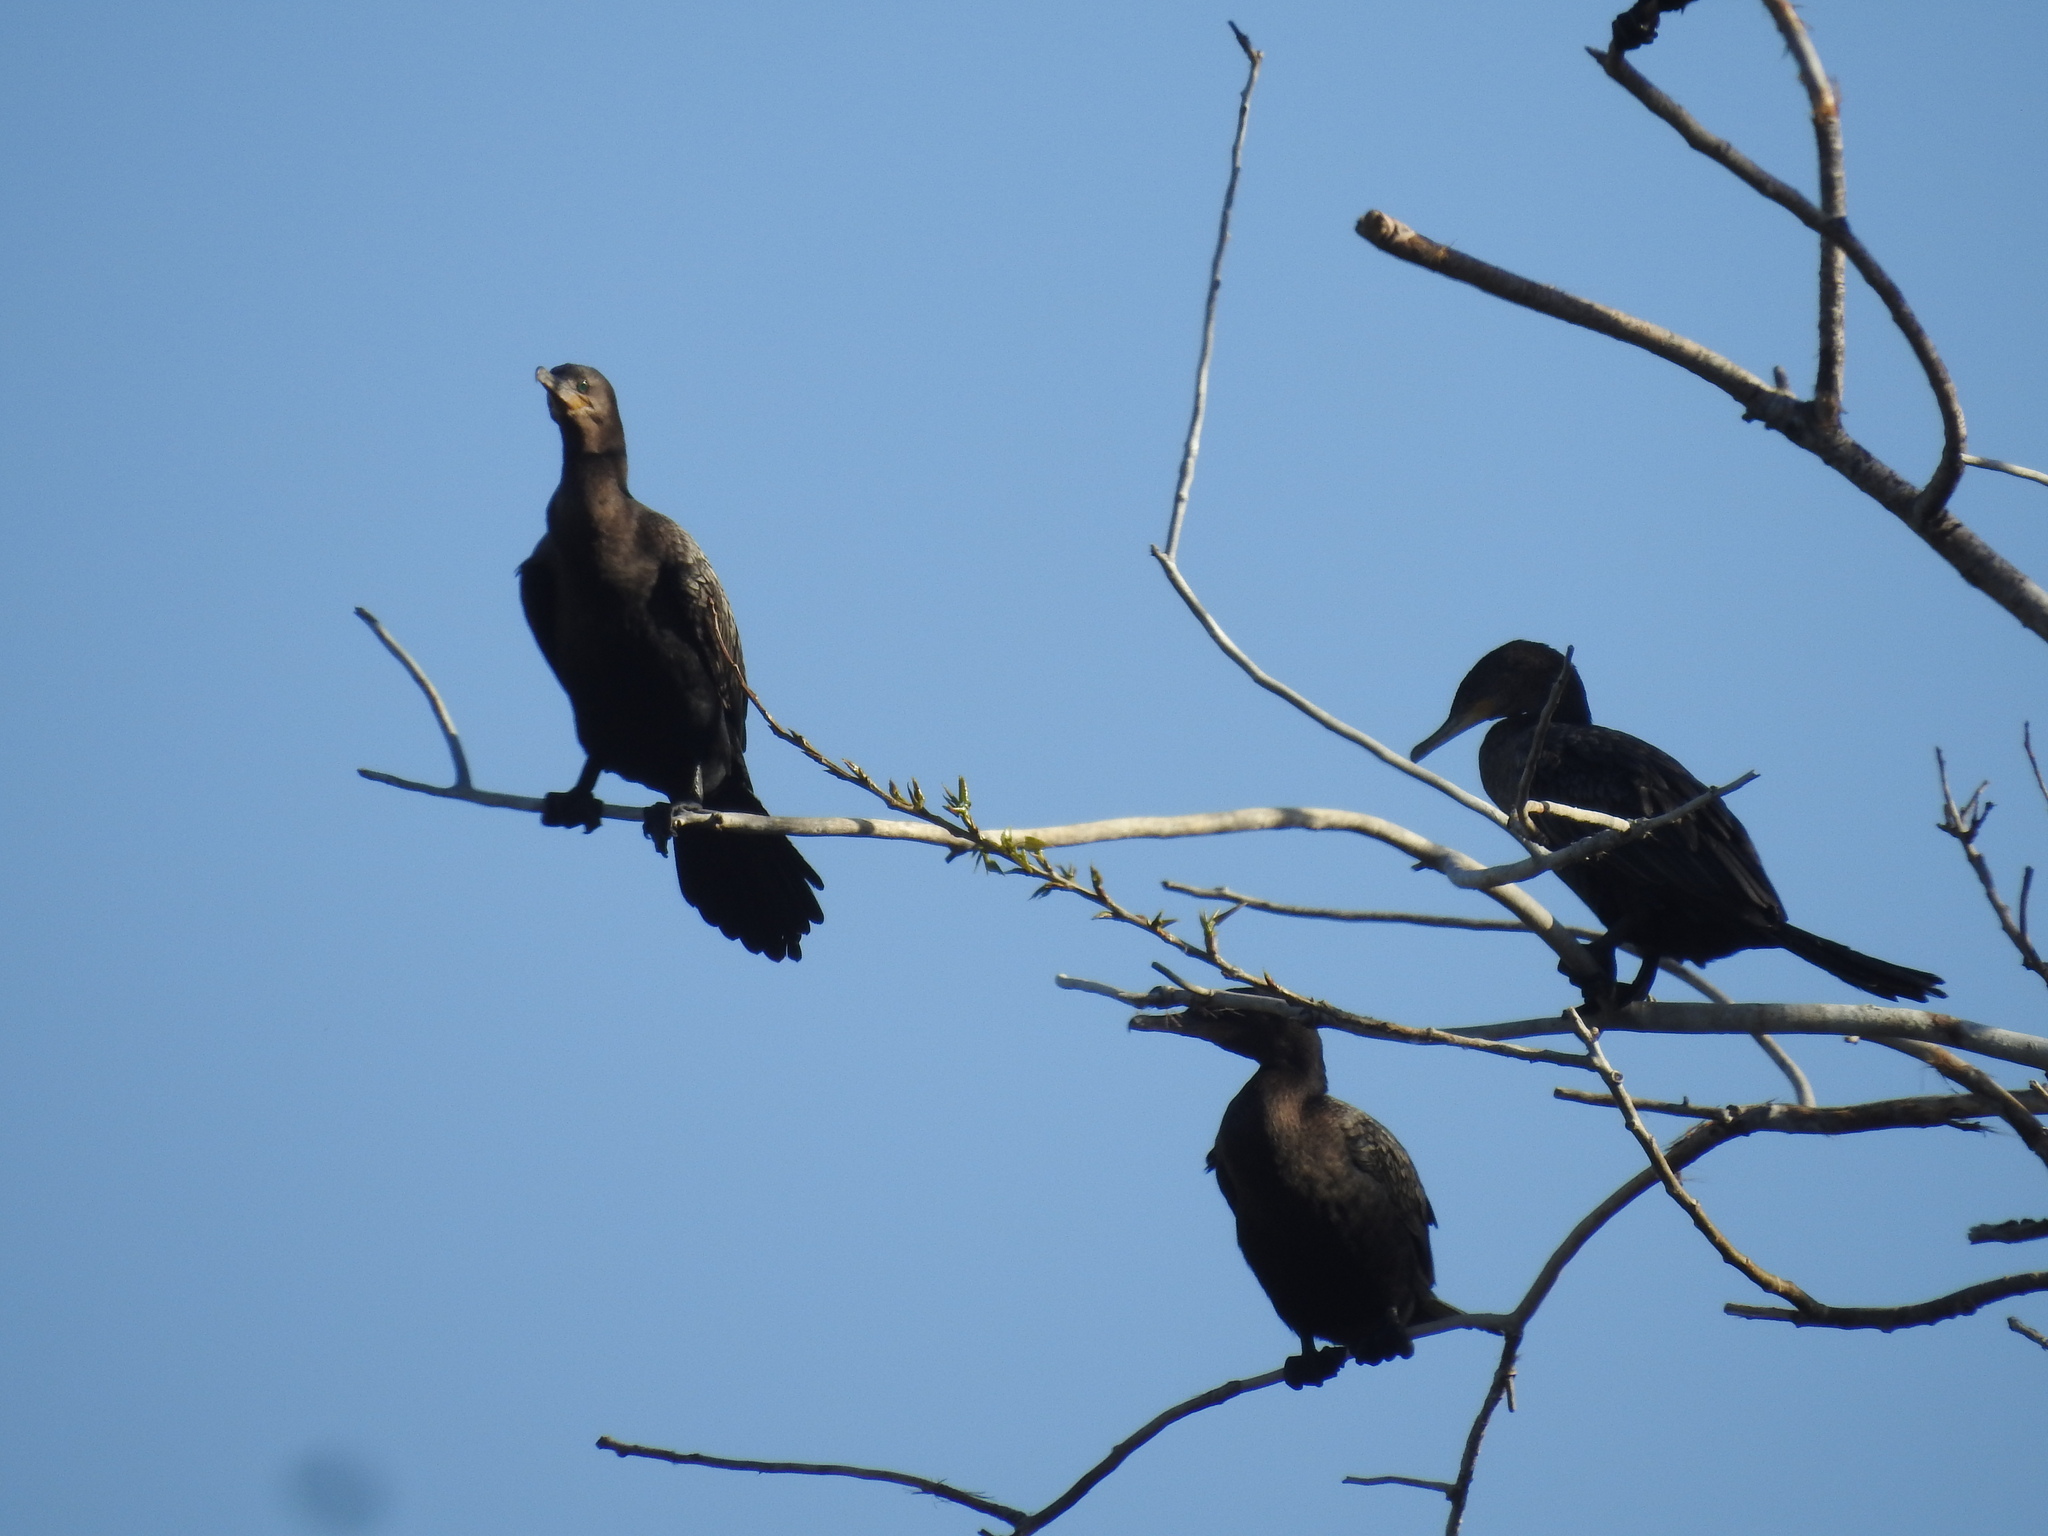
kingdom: Animalia
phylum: Chordata
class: Aves
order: Suliformes
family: Phalacrocoracidae
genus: Phalacrocorax
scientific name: Phalacrocorax brasilianus
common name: Neotropic cormorant
